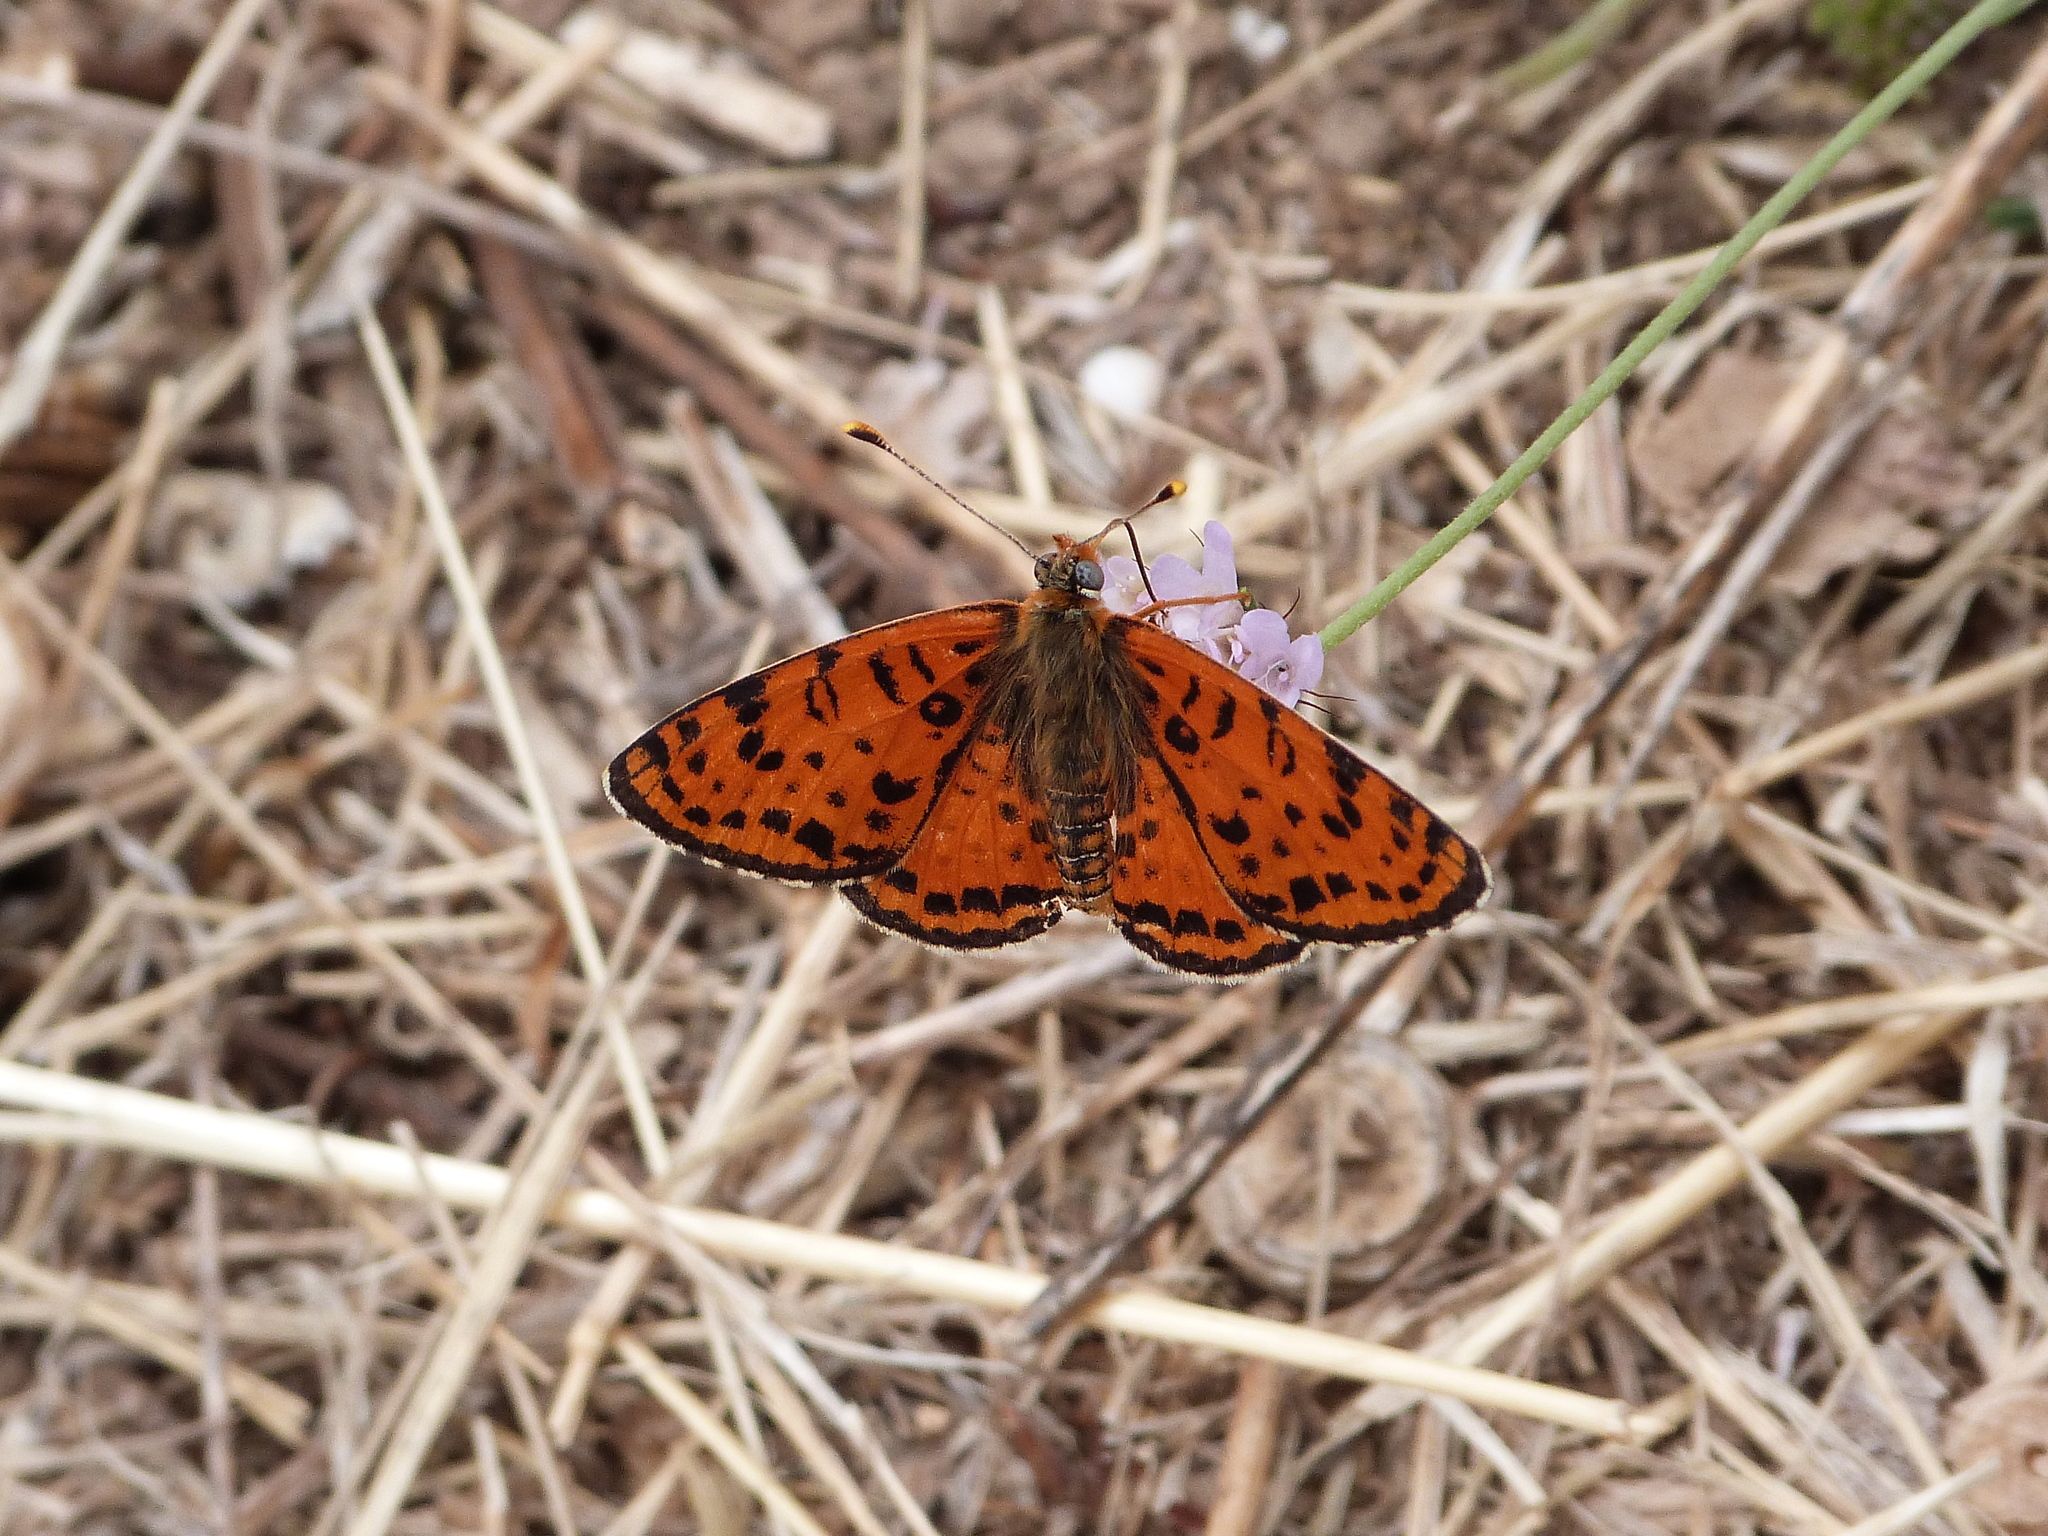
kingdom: Animalia
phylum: Arthropoda
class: Insecta
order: Lepidoptera
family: Nymphalidae
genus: Melitaea
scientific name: Melitaea didyma
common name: Spotted fritillary
